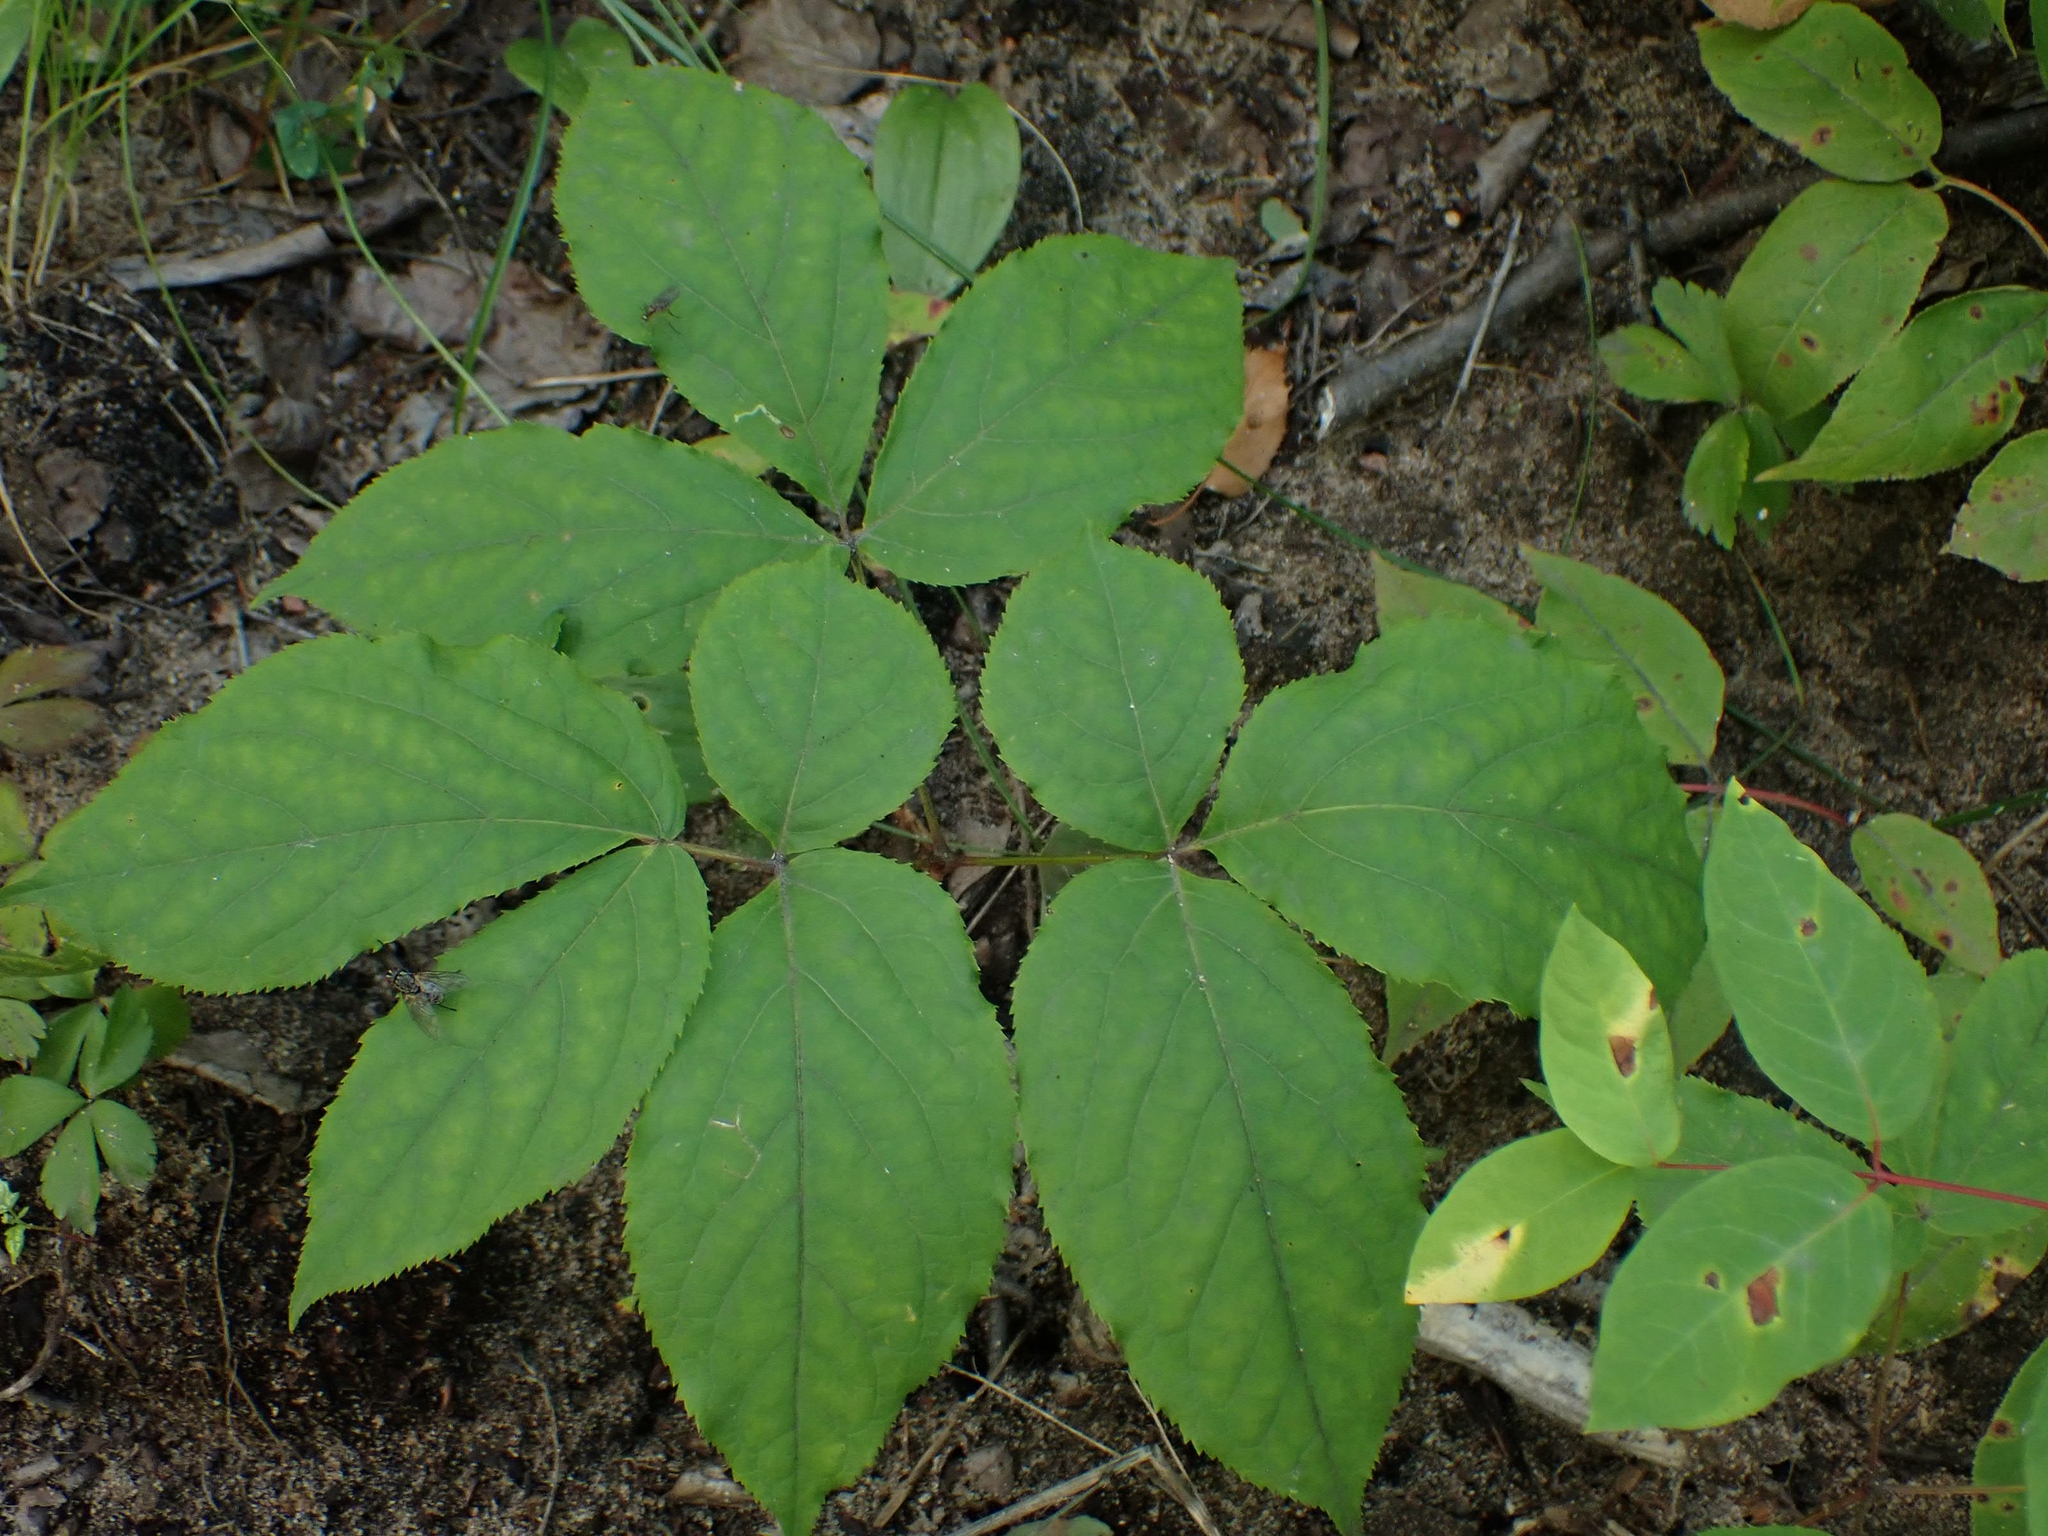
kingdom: Plantae
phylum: Tracheophyta
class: Magnoliopsida
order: Apiales
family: Araliaceae
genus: Aralia
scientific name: Aralia nudicaulis
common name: Wild sarsaparilla
